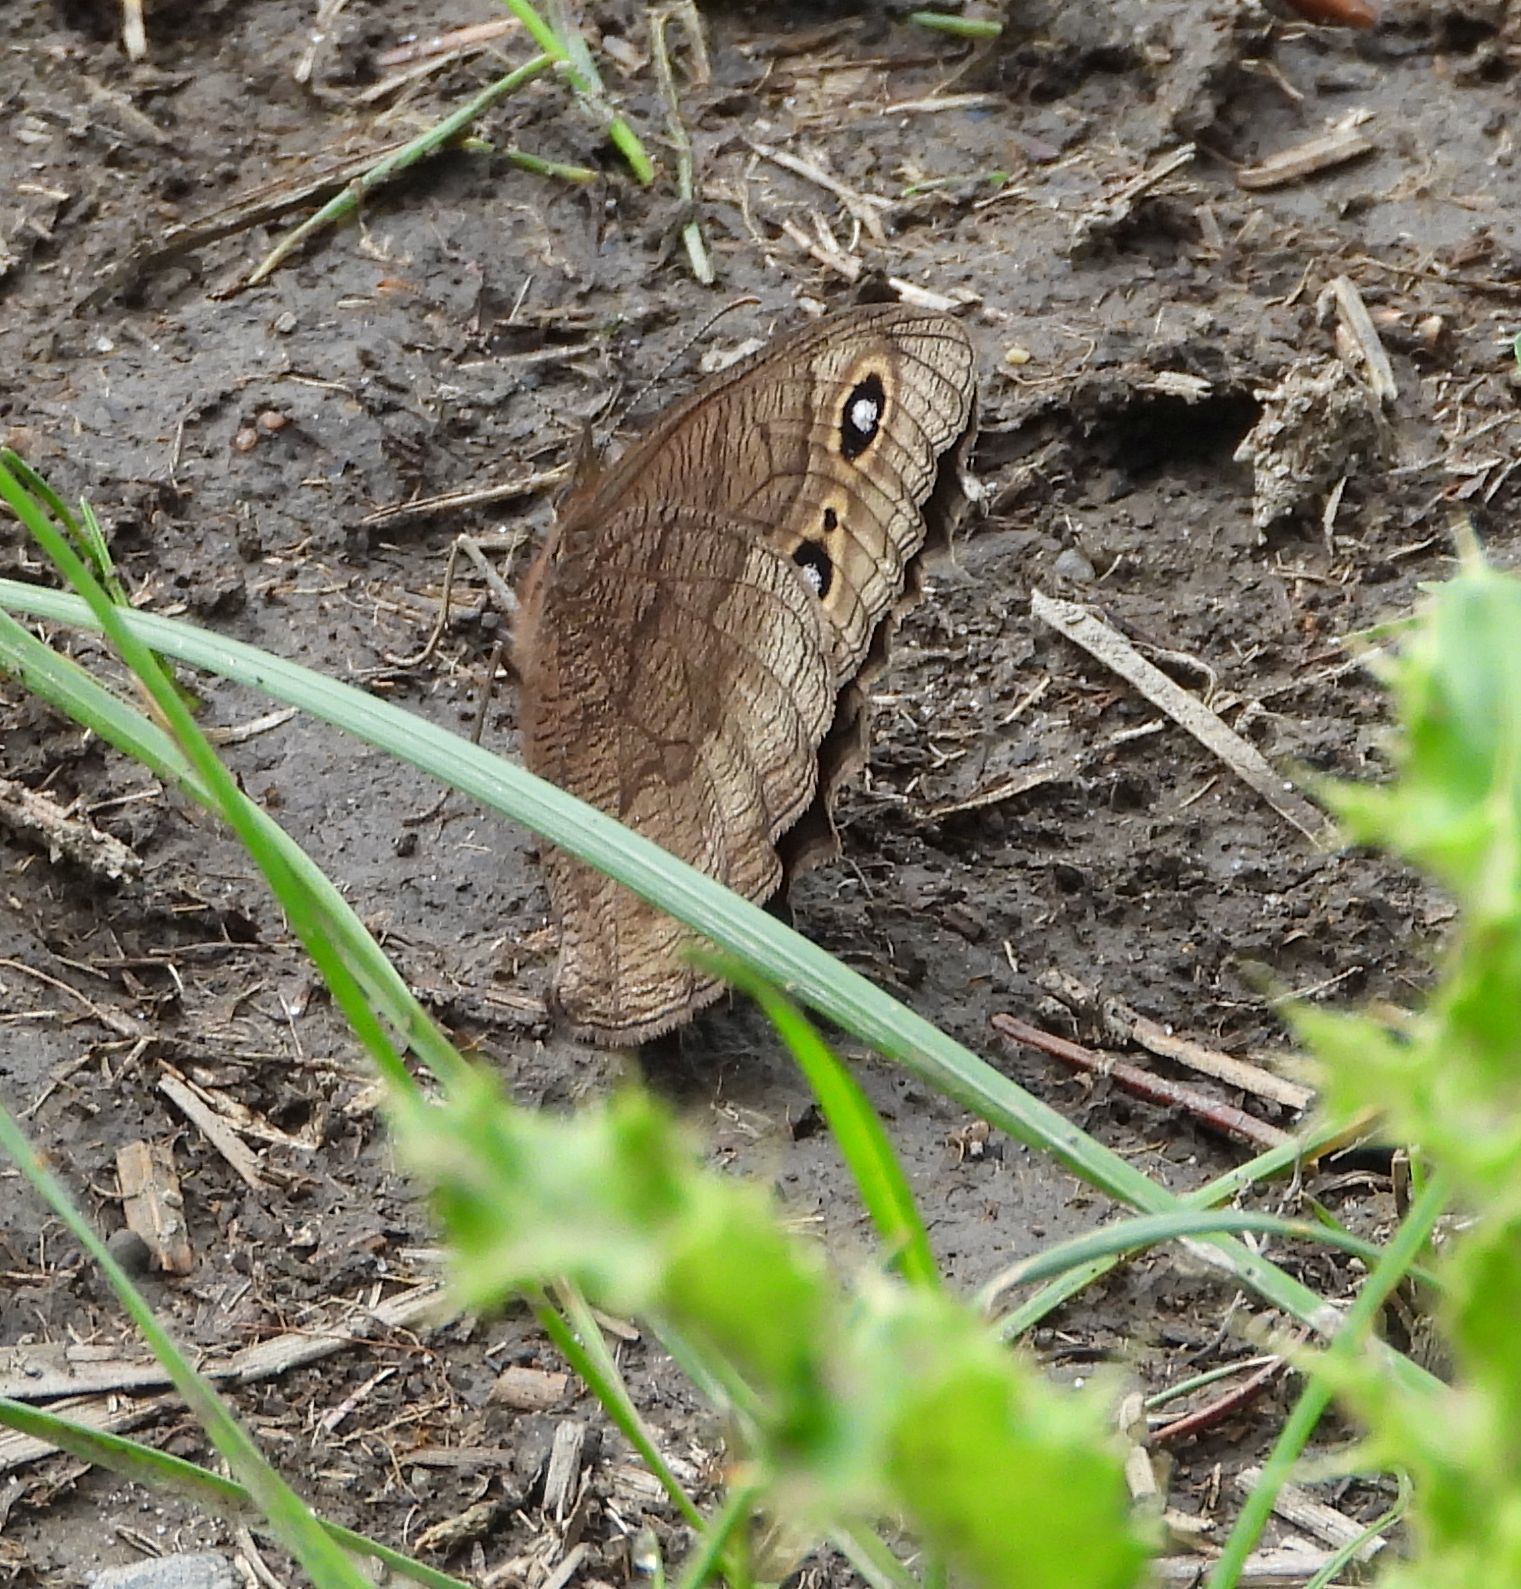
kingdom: Animalia
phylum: Arthropoda
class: Insecta
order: Lepidoptera
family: Nymphalidae
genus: Cercyonis
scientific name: Cercyonis pegala
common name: Common wood-nymph
